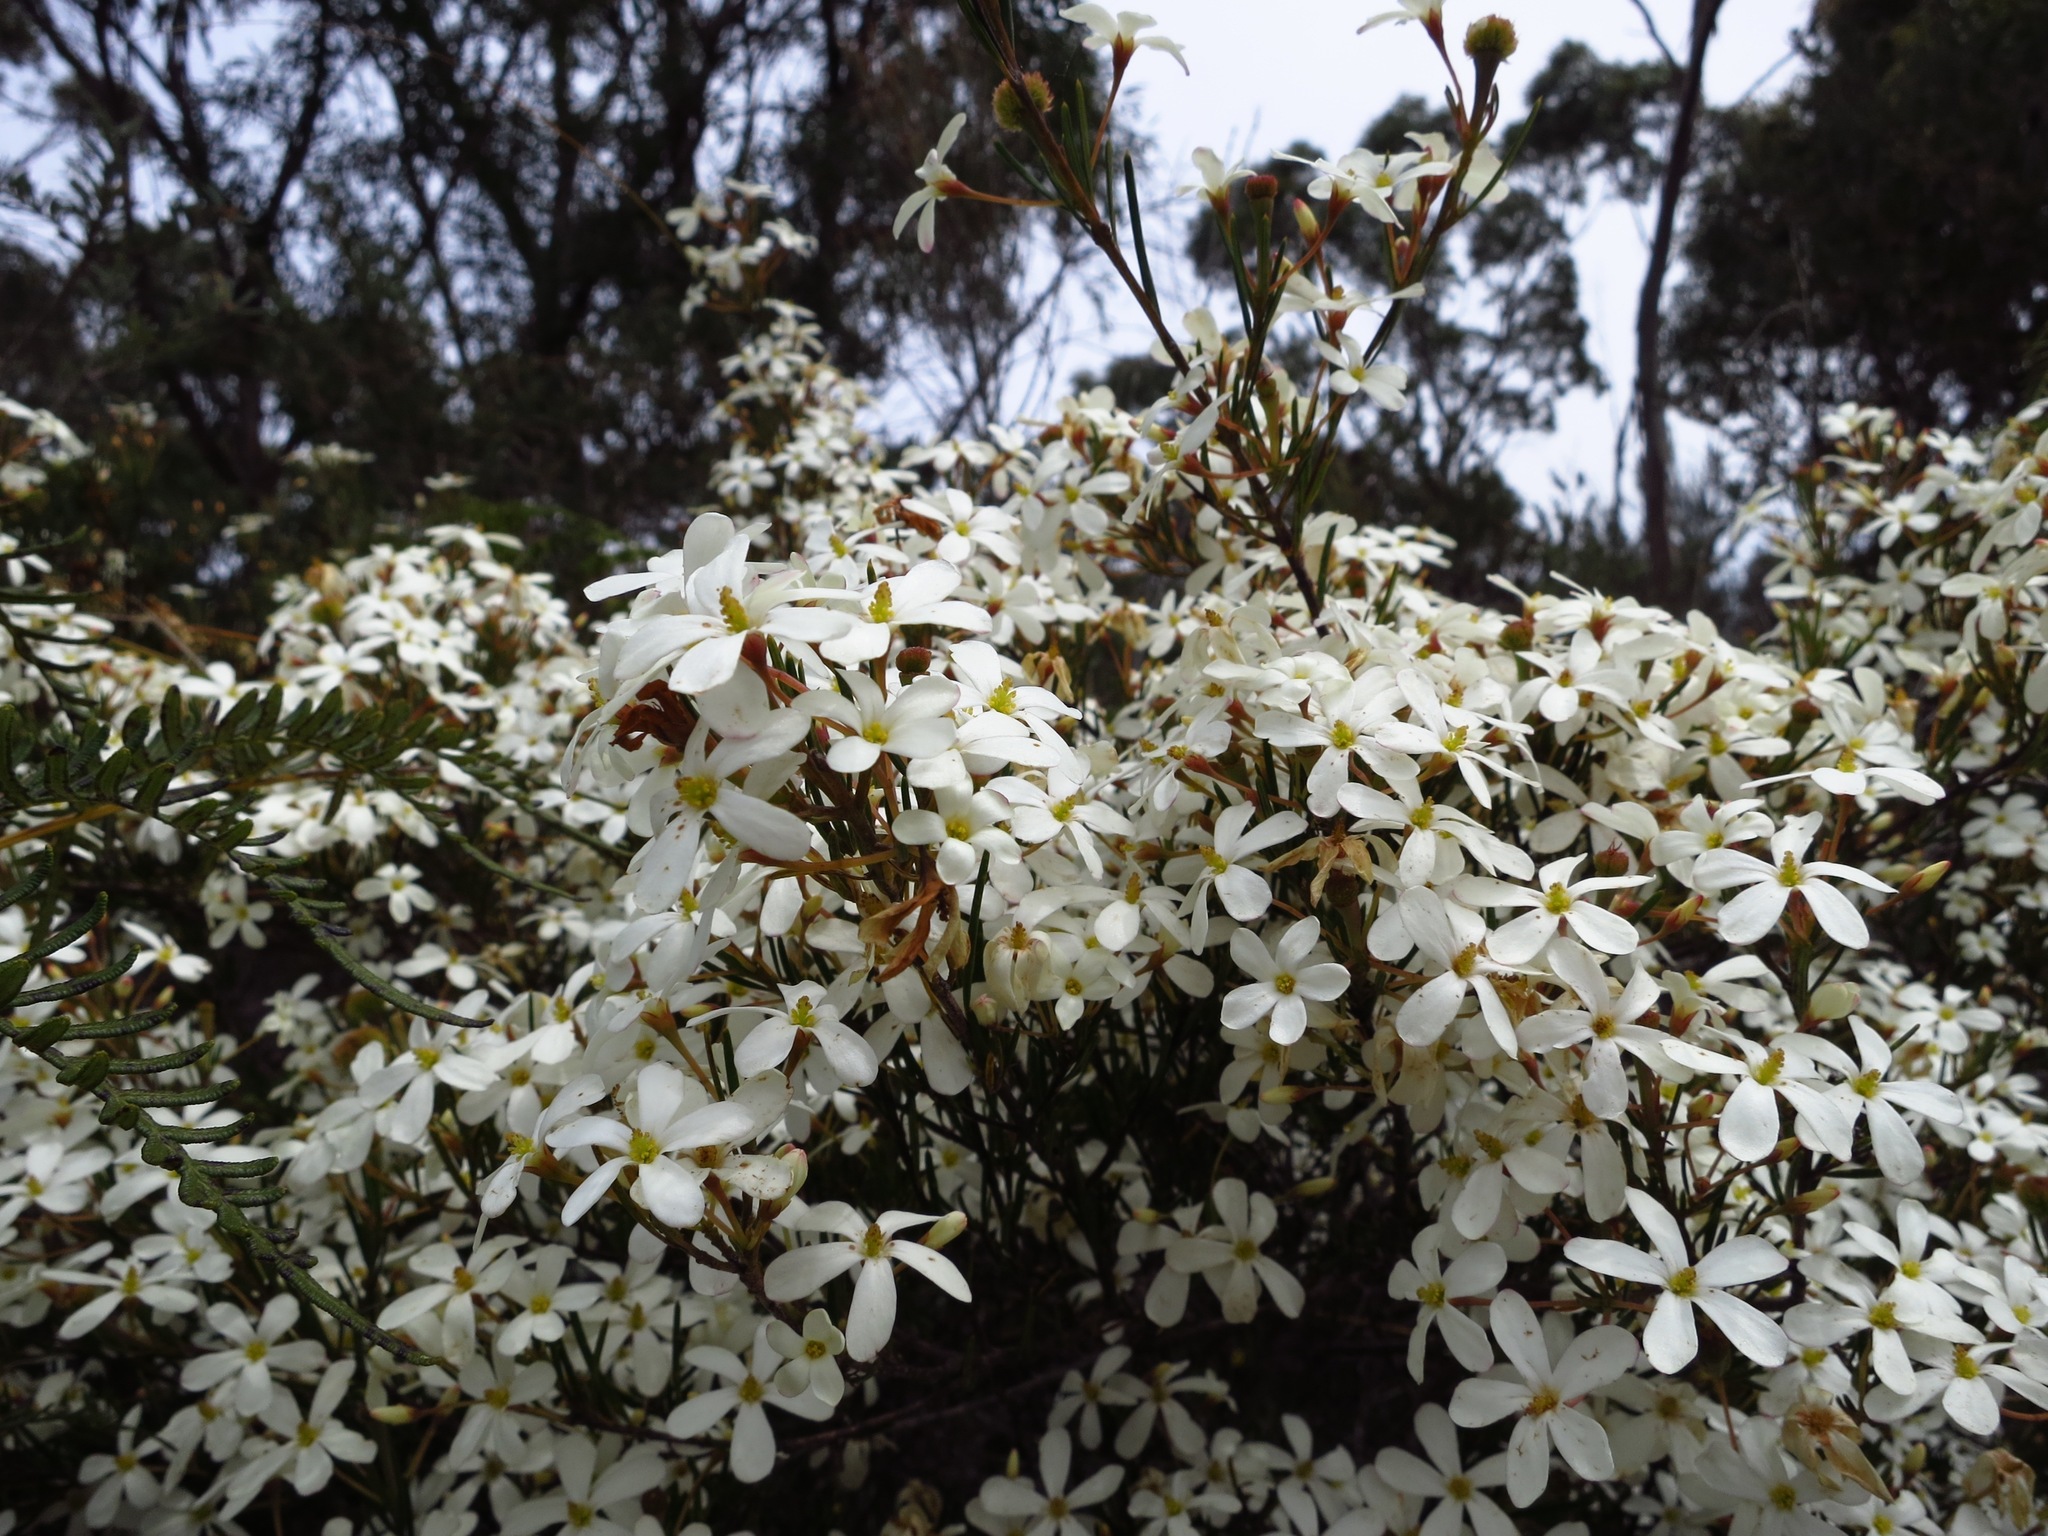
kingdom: Plantae
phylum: Tracheophyta
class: Magnoliopsida
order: Malpighiales
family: Euphorbiaceae
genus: Ricinocarpos
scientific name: Ricinocarpos pinifolius
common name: Weddingbush
